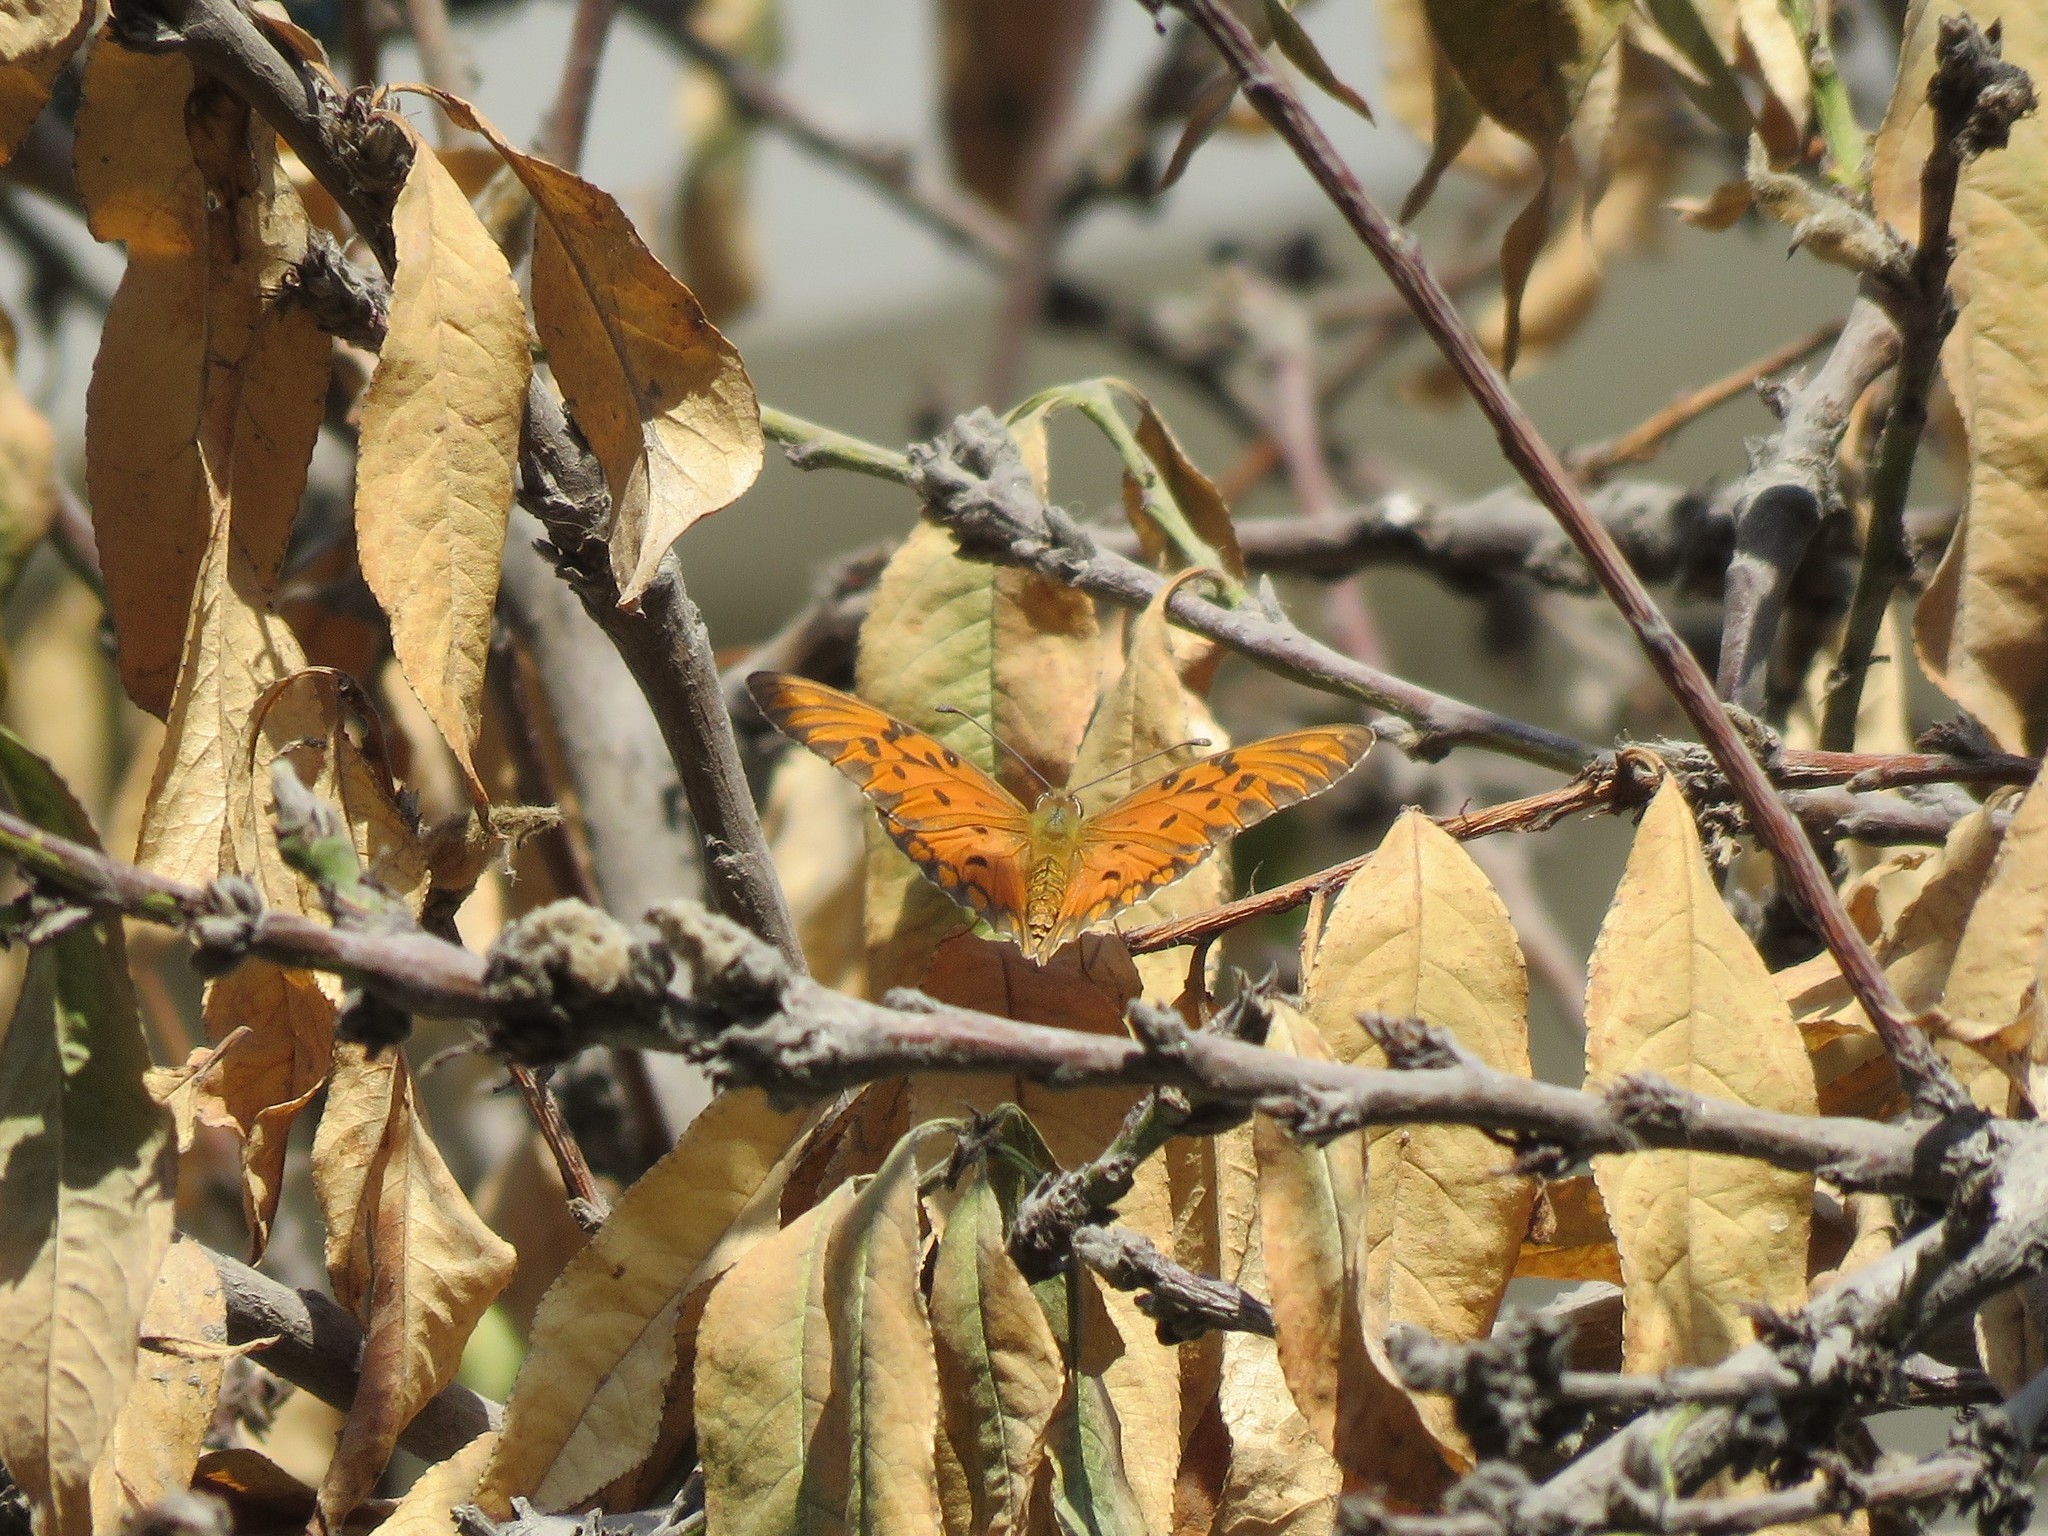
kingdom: Animalia
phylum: Arthropoda
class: Insecta
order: Lepidoptera
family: Nymphalidae
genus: Dione
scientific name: Dione vanillae
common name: Gulf fritillary
